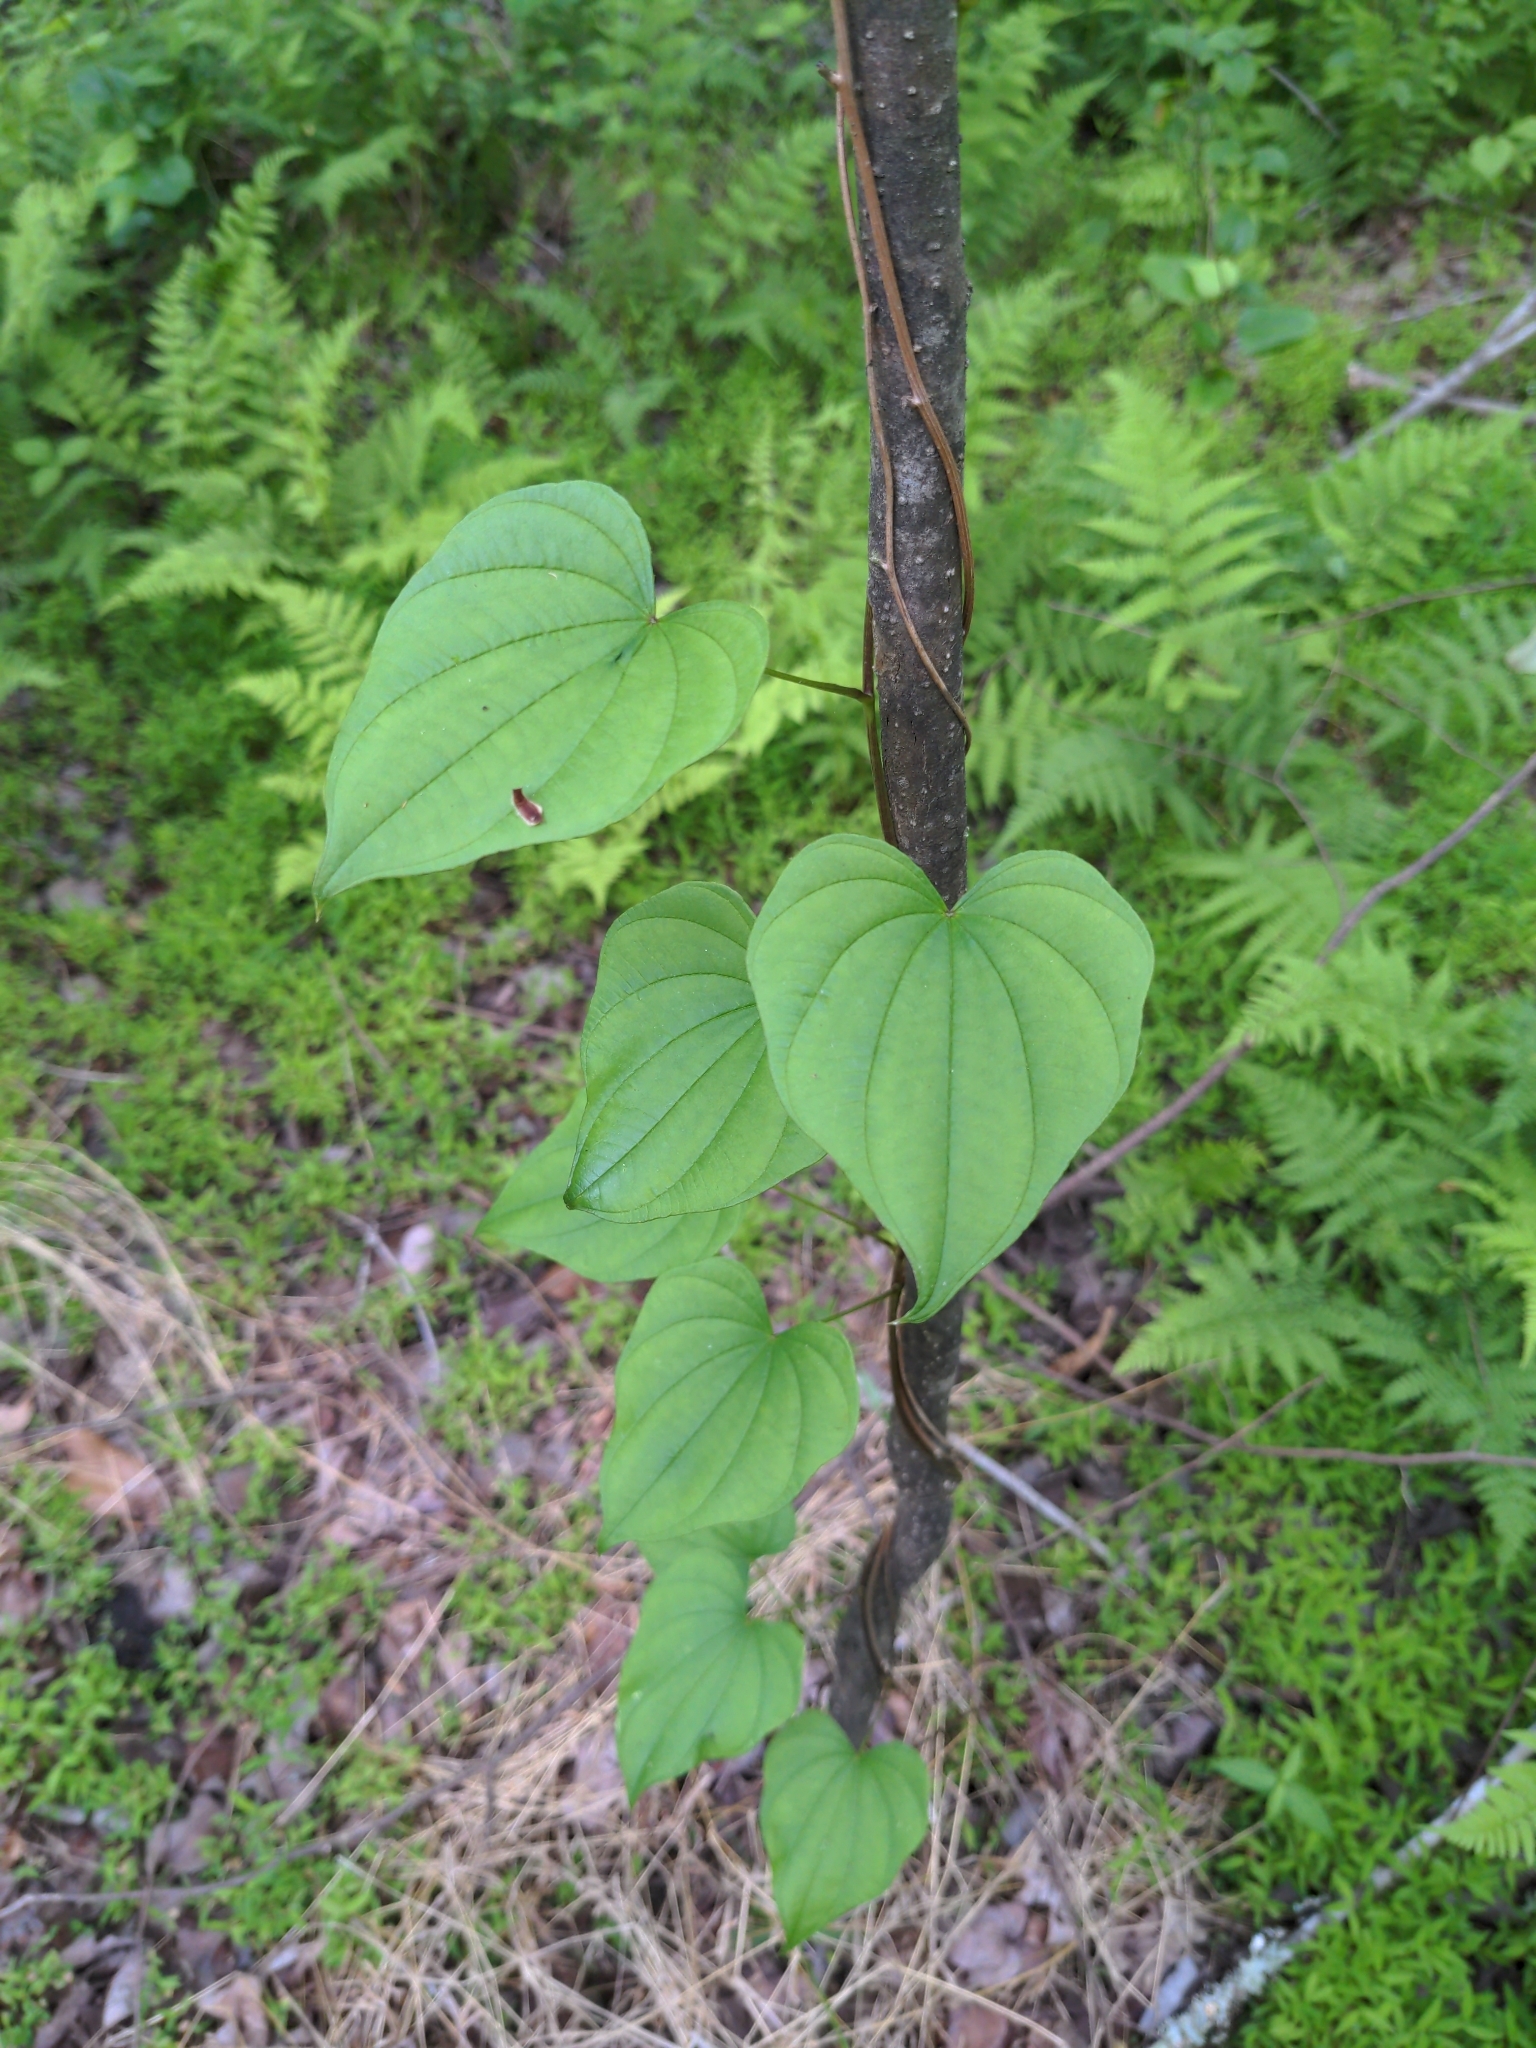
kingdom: Plantae
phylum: Tracheophyta
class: Liliopsida
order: Dioscoreales
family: Dioscoreaceae
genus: Dioscorea
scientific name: Dioscorea villosa
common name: Wild yam
